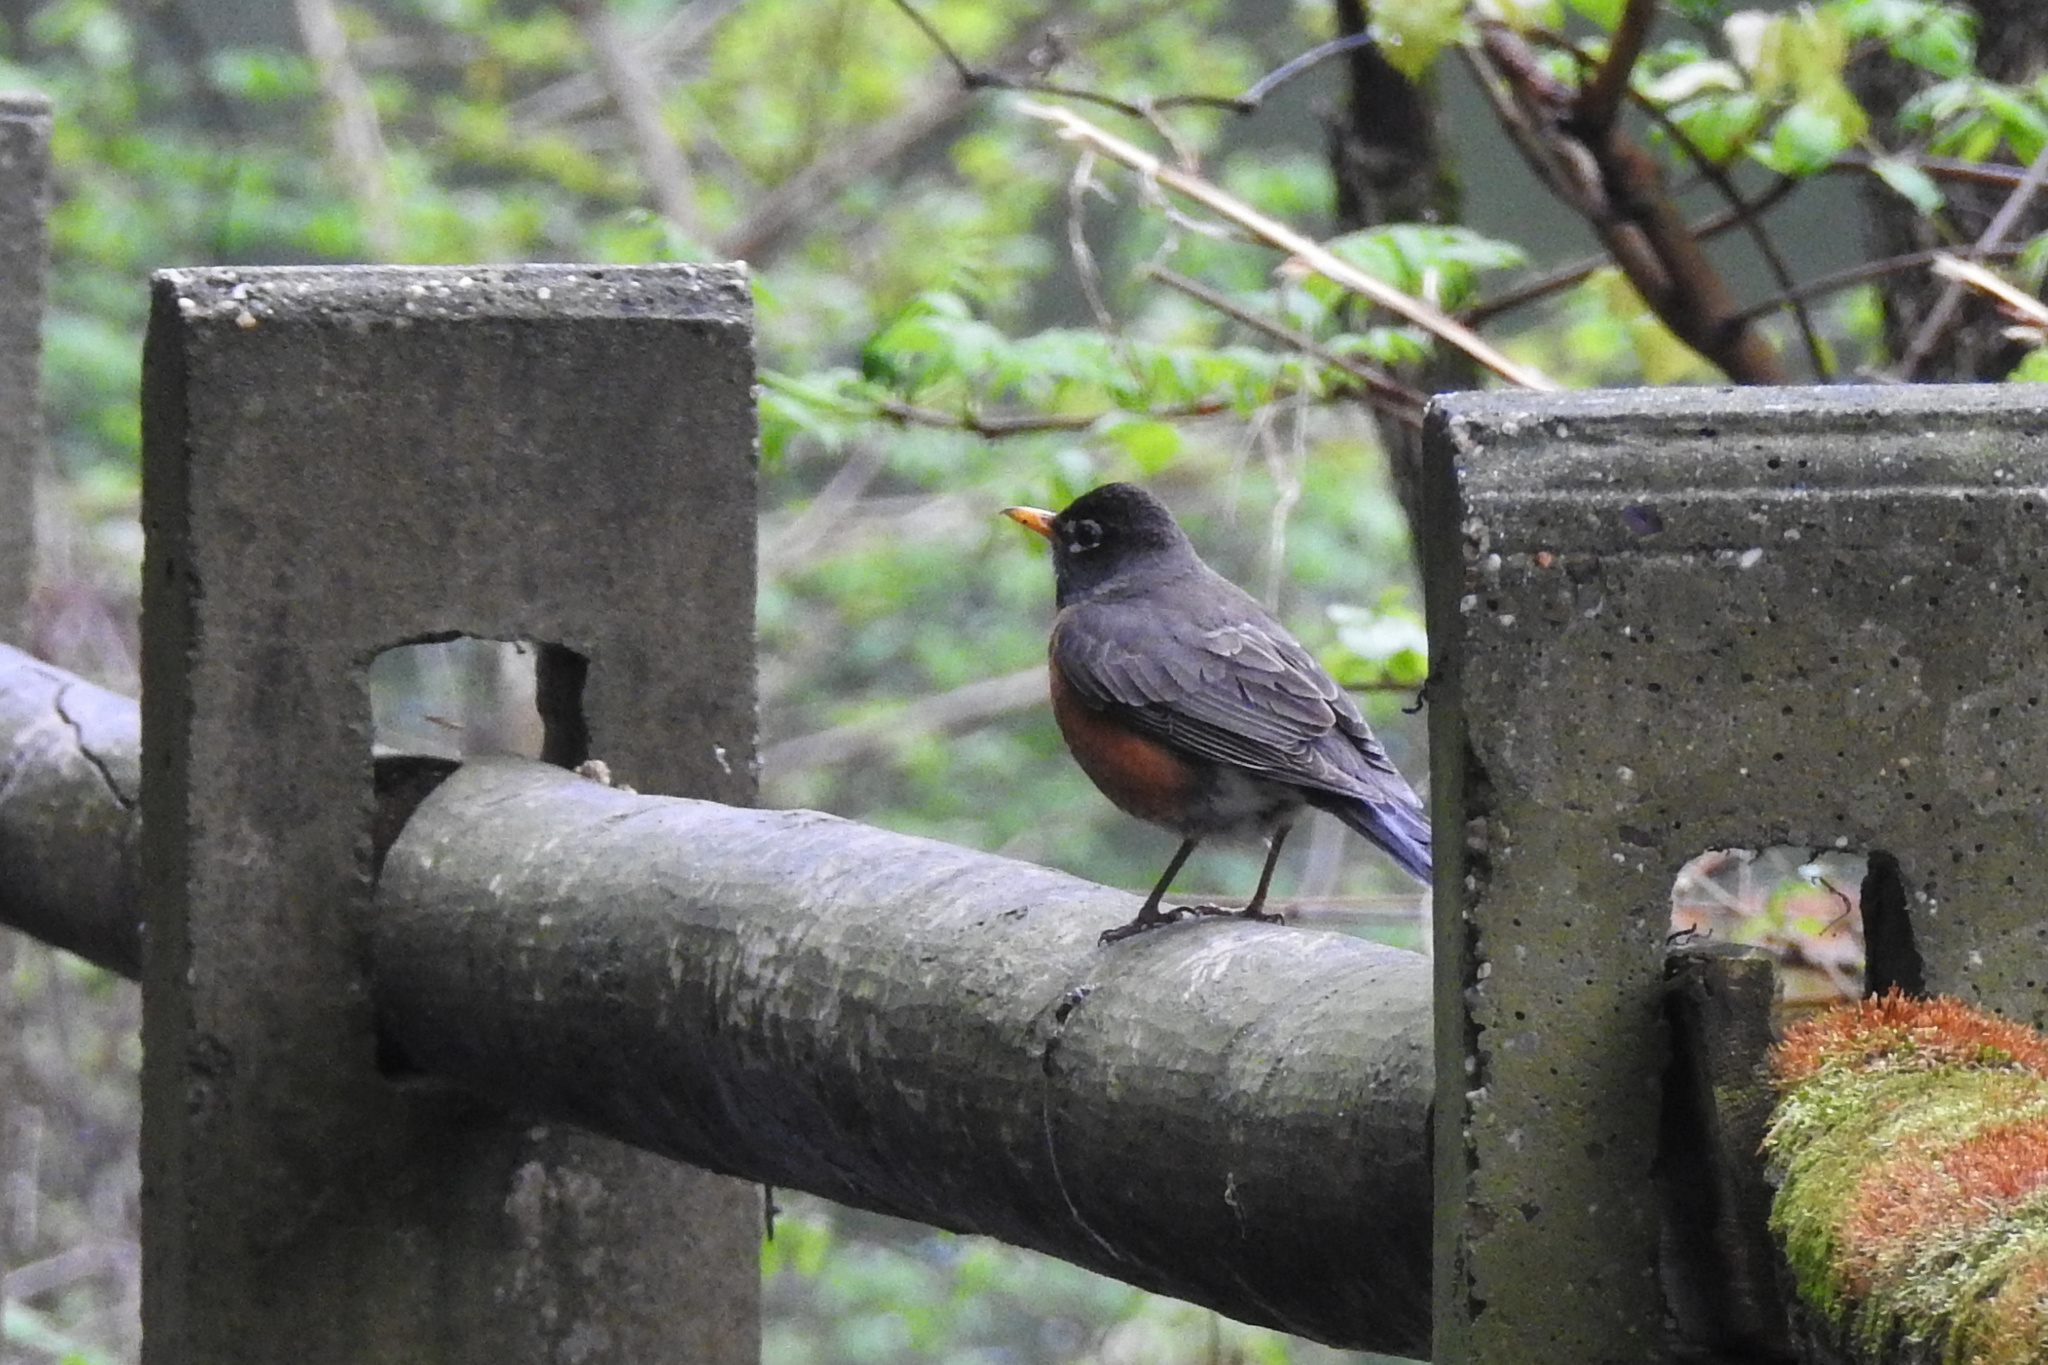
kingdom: Animalia
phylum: Chordata
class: Aves
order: Passeriformes
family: Turdidae
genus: Turdus
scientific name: Turdus migratorius
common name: American robin
